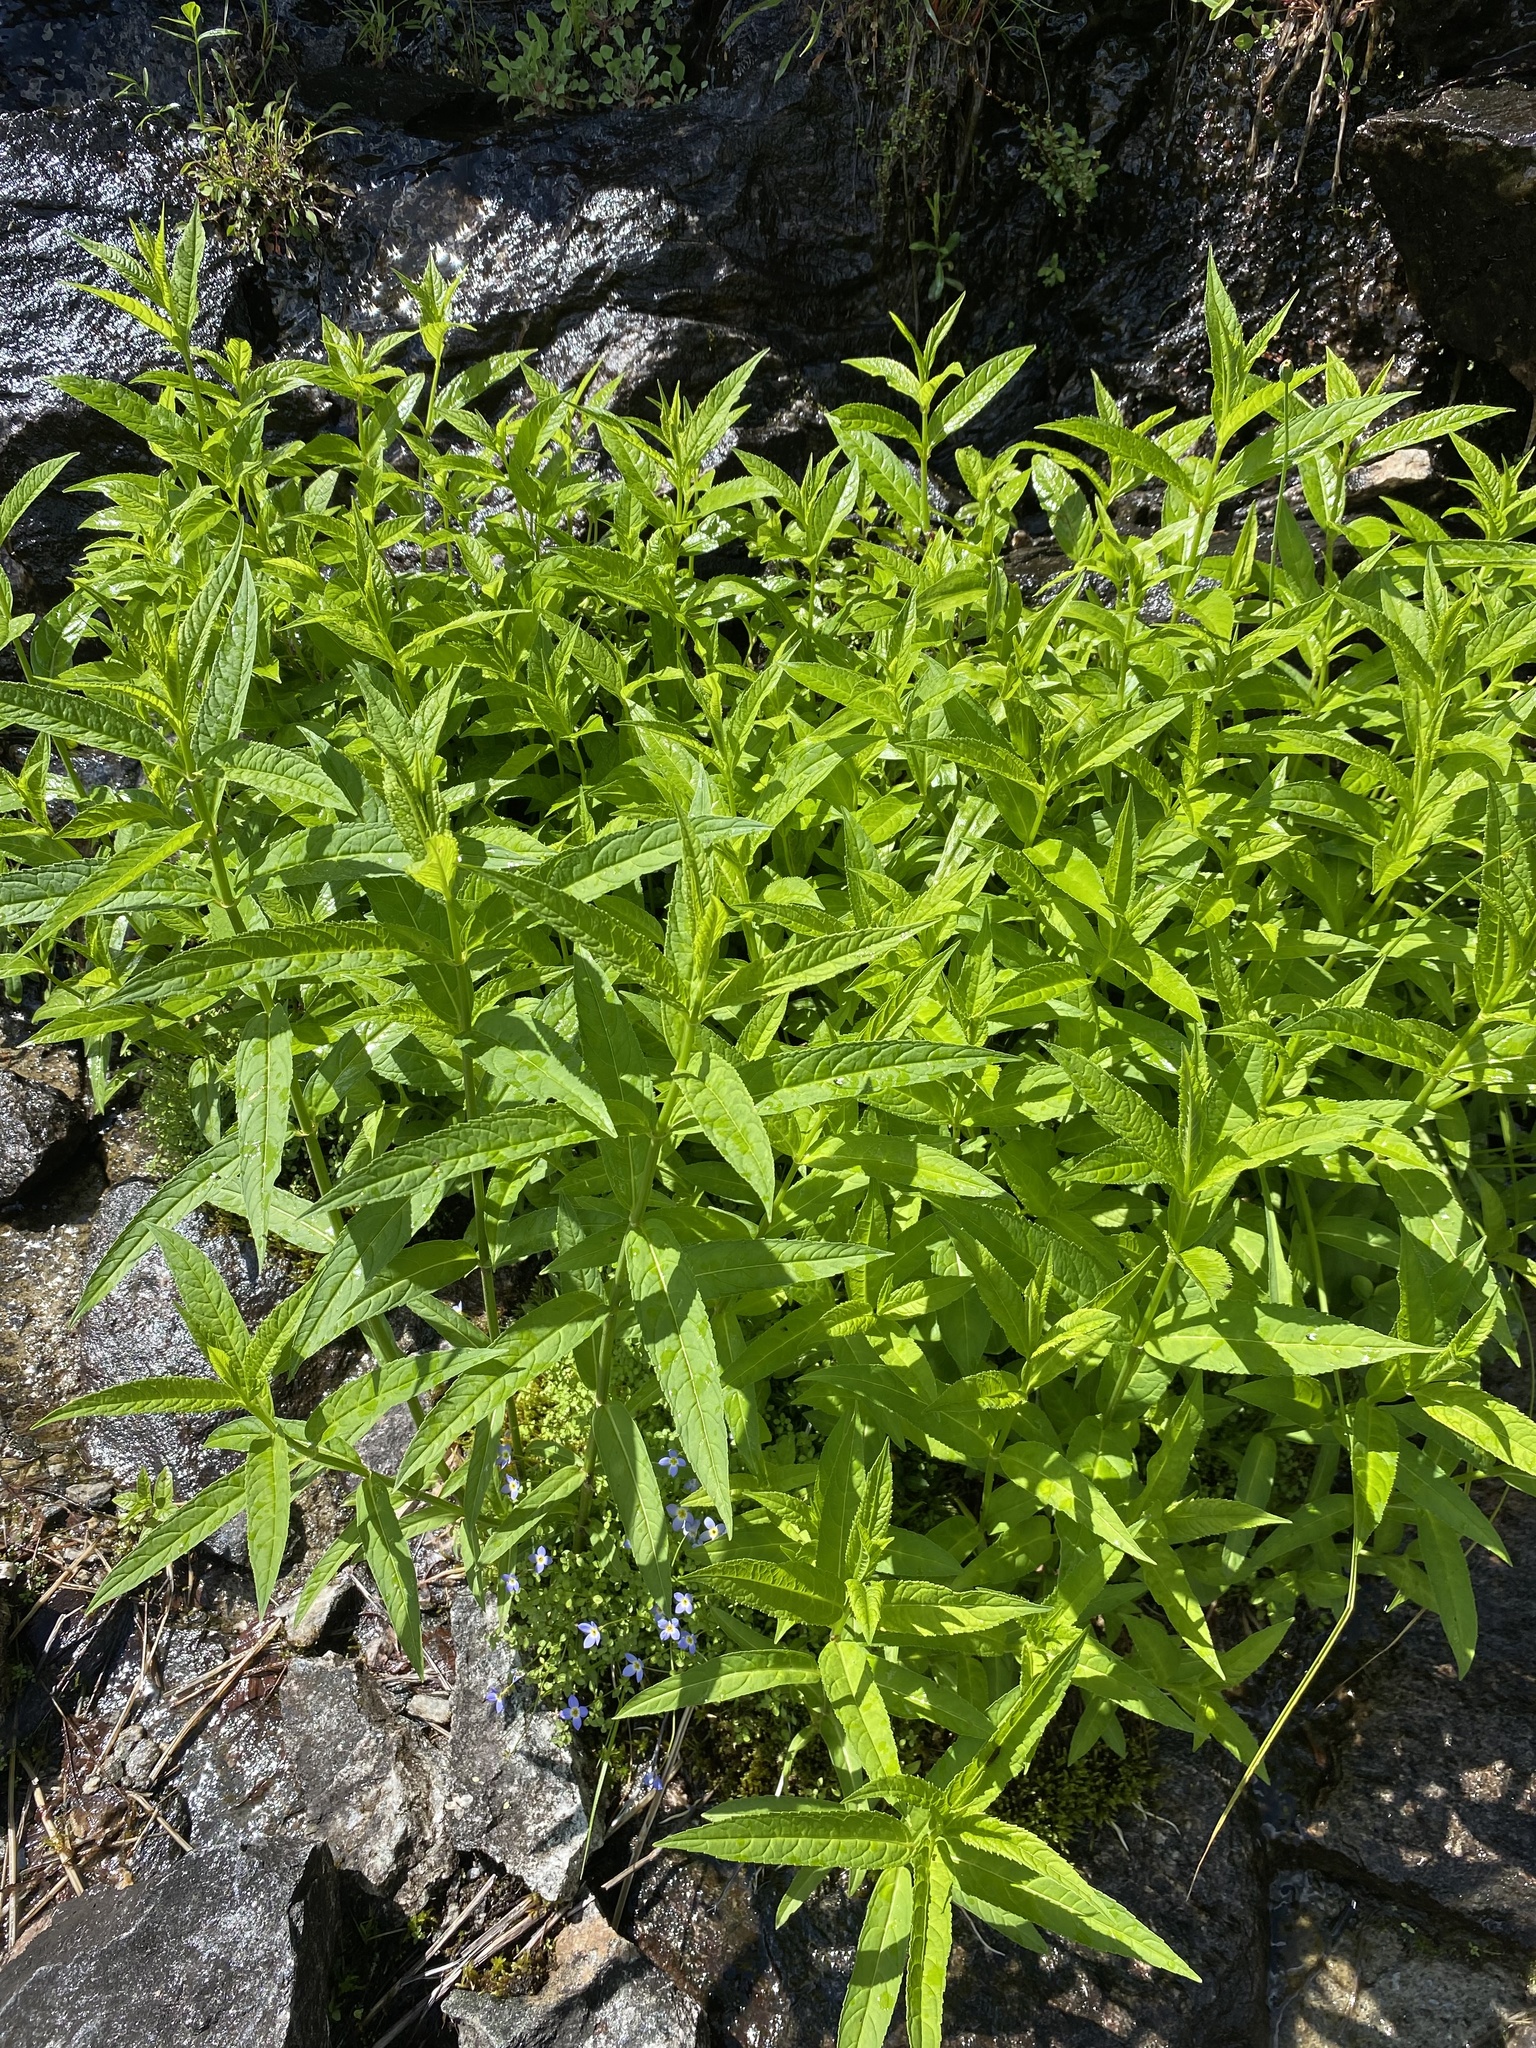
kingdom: Plantae
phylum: Tracheophyta
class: Magnoliopsida
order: Lamiales
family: Plantaginaceae
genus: Chelone
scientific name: Chelone cuthbertii
